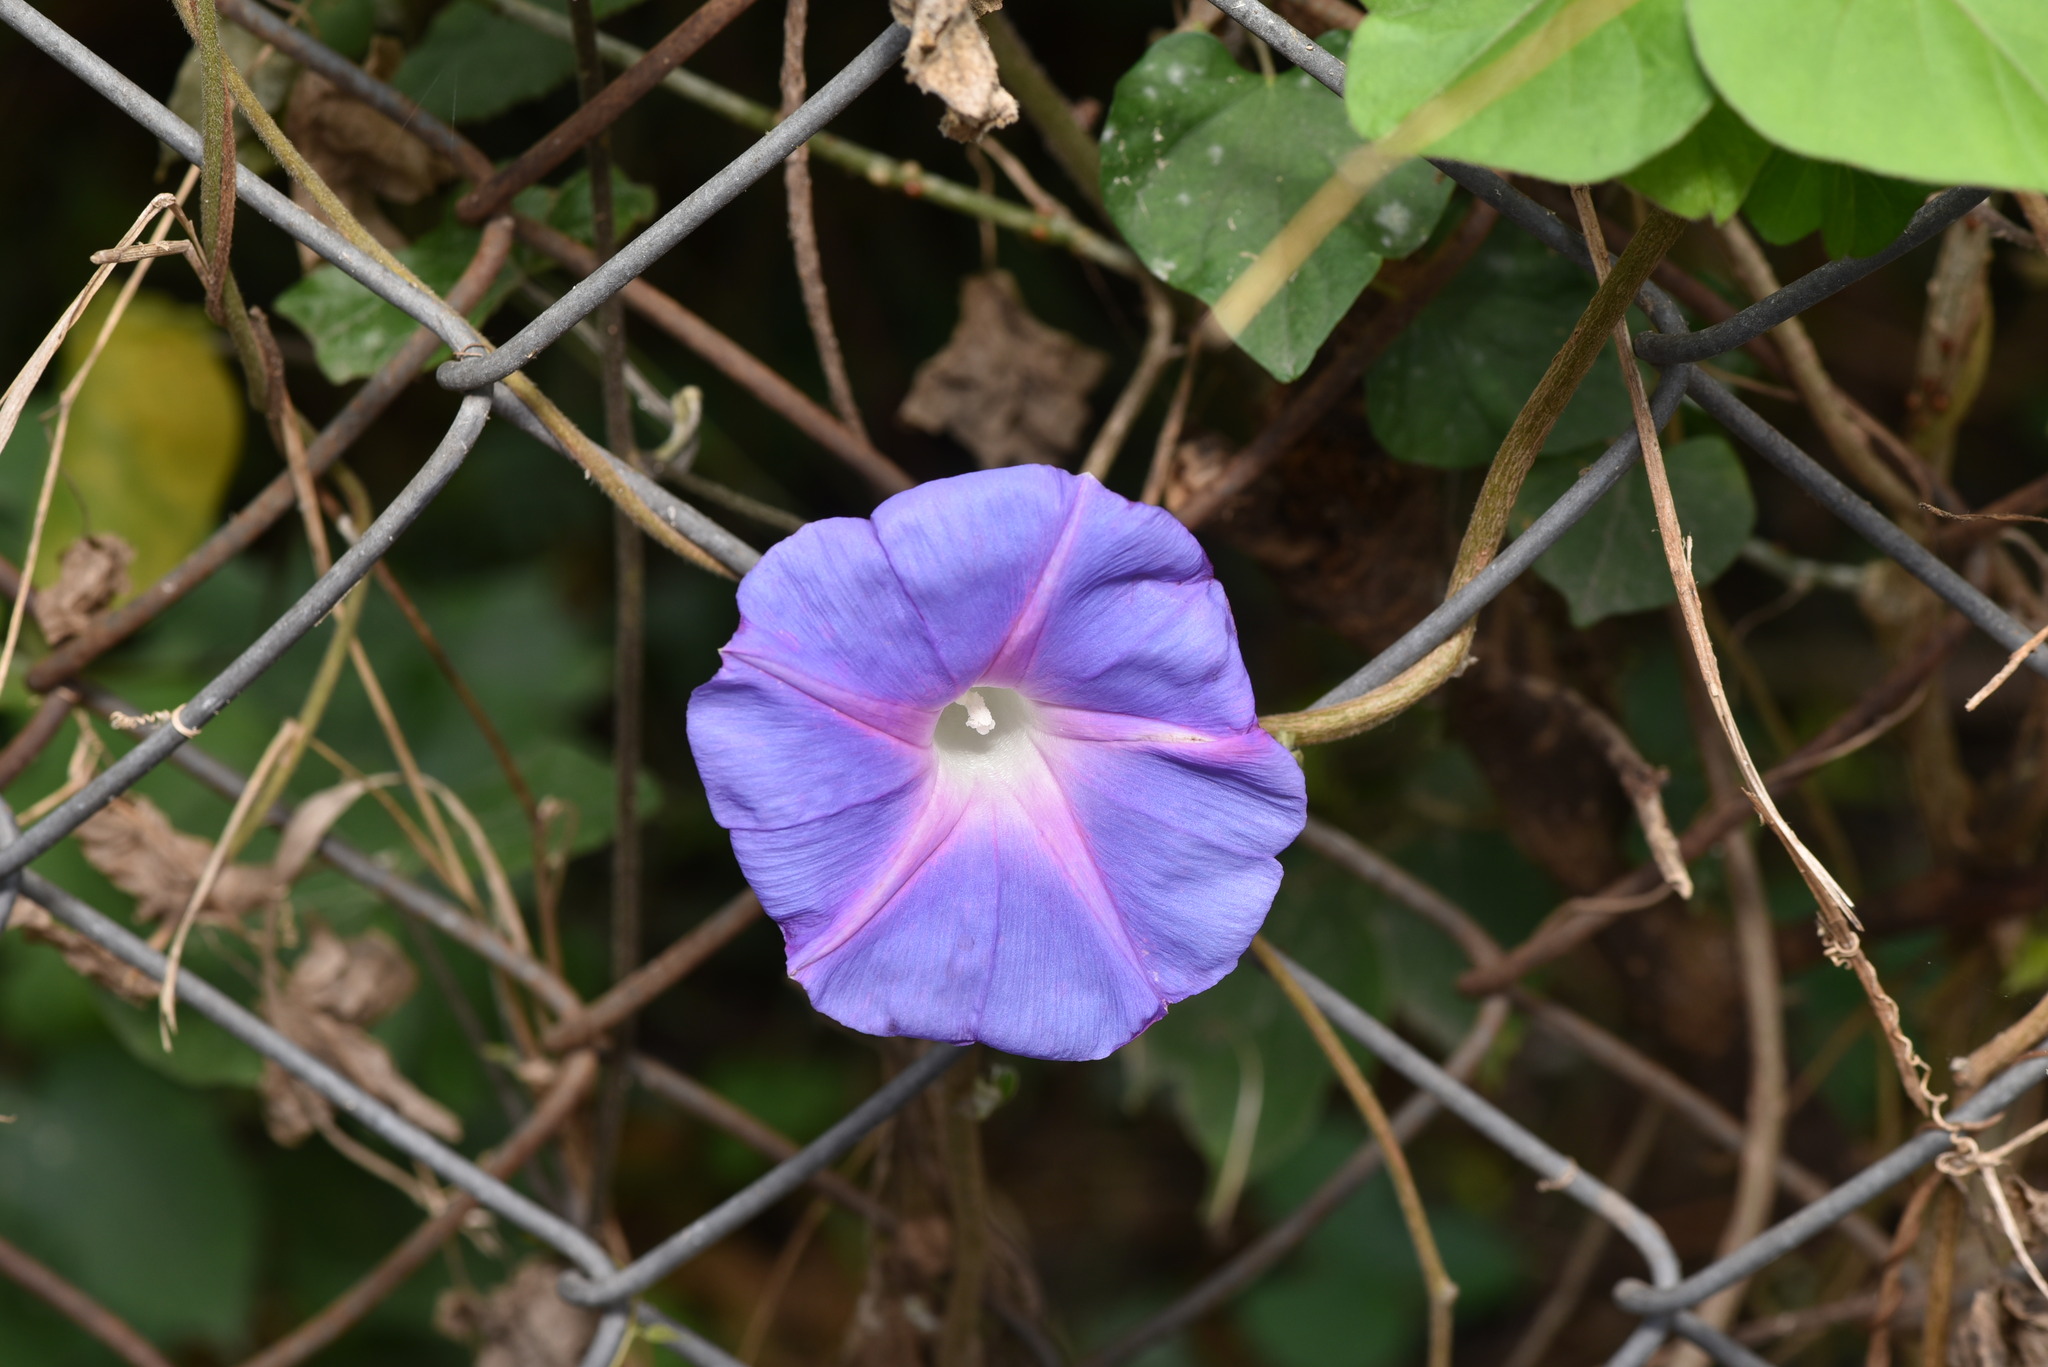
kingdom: Plantae
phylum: Tracheophyta
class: Magnoliopsida
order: Solanales
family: Convolvulaceae
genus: Ipomoea
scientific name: Ipomoea indica
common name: Blue dawnflower
